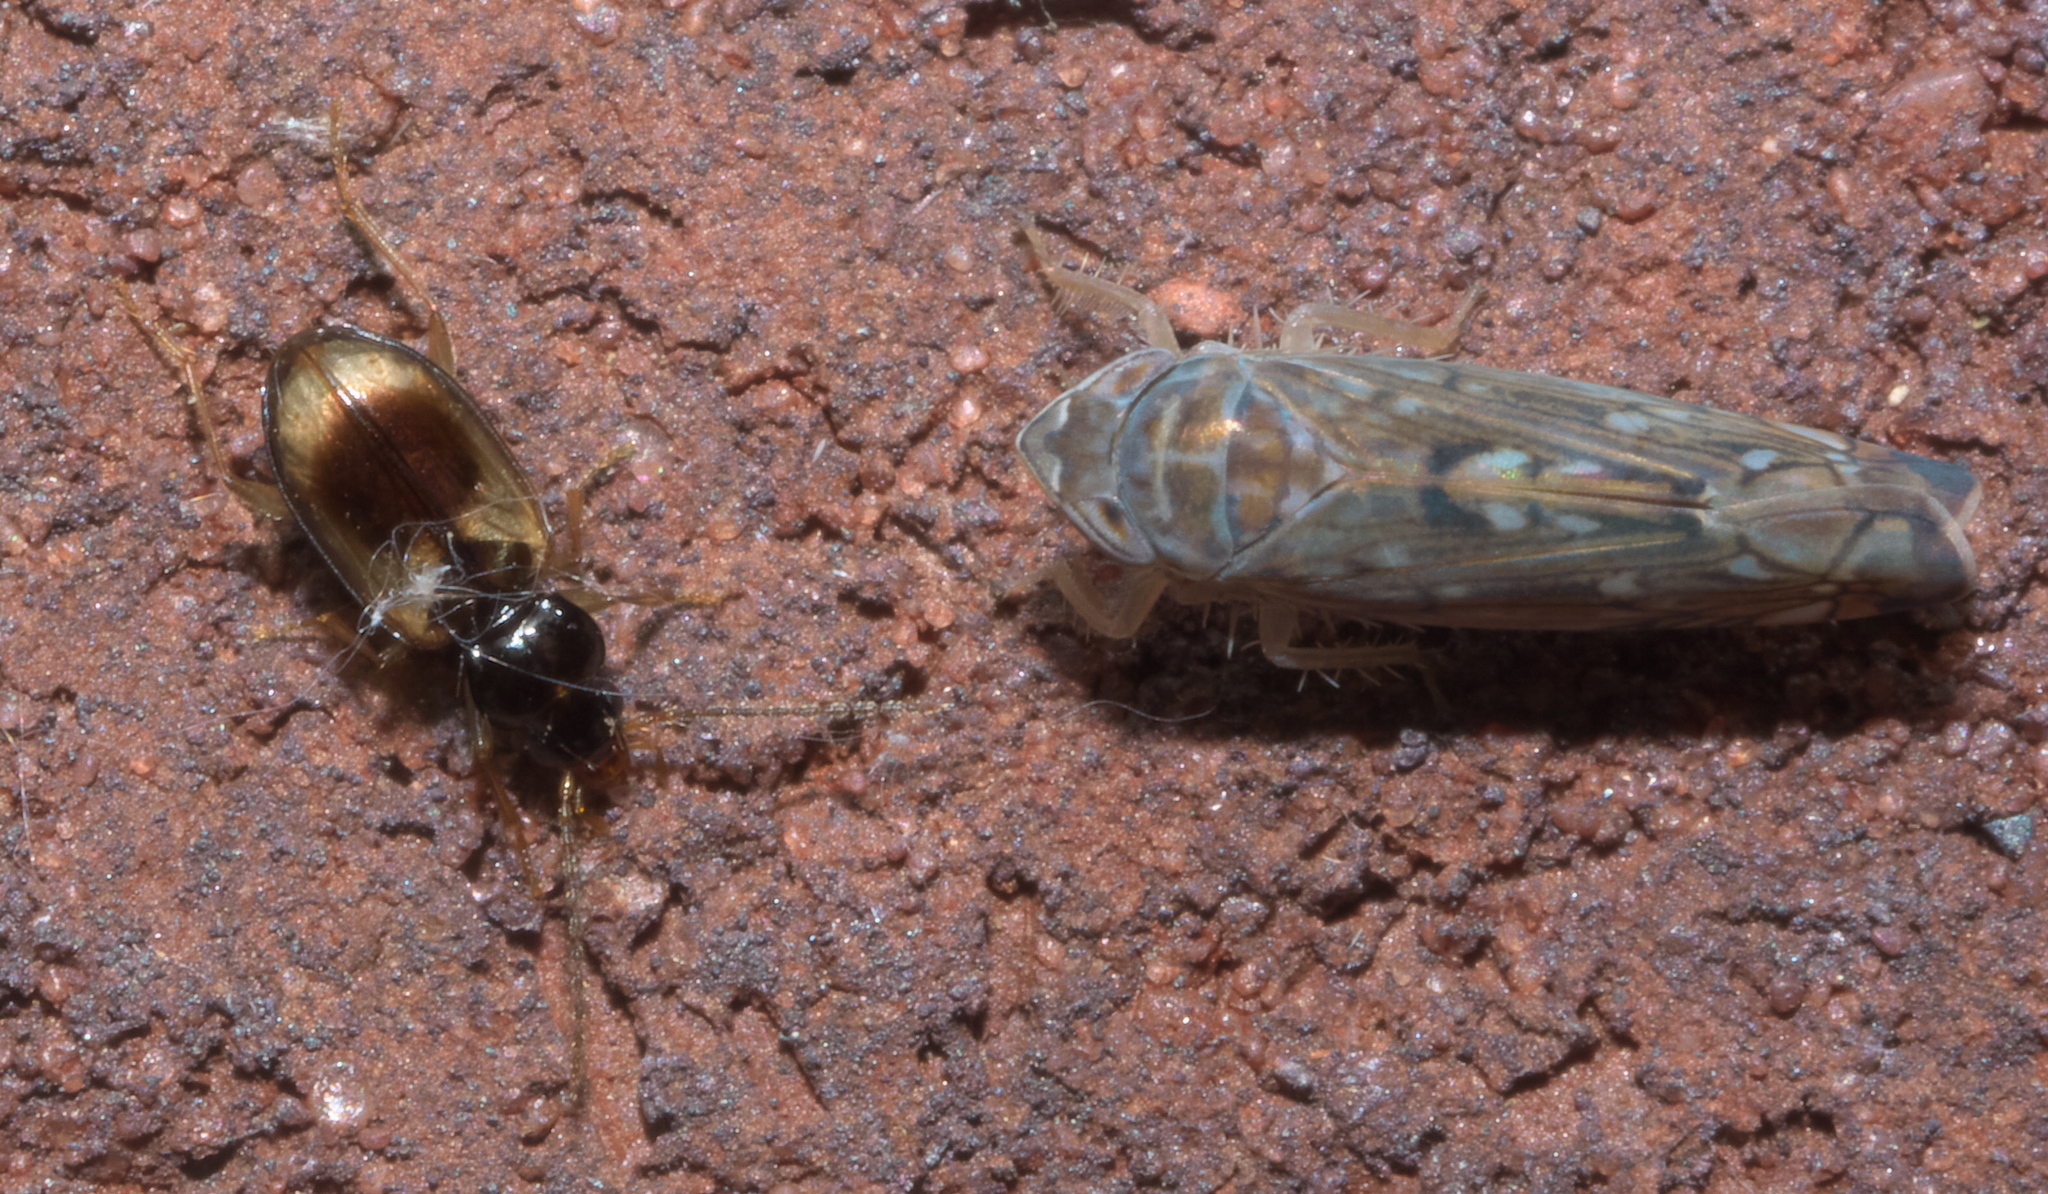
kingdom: Animalia
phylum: Arthropoda
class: Insecta
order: Coleoptera
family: Carabidae
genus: Tachys
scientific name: Tachys proximus
